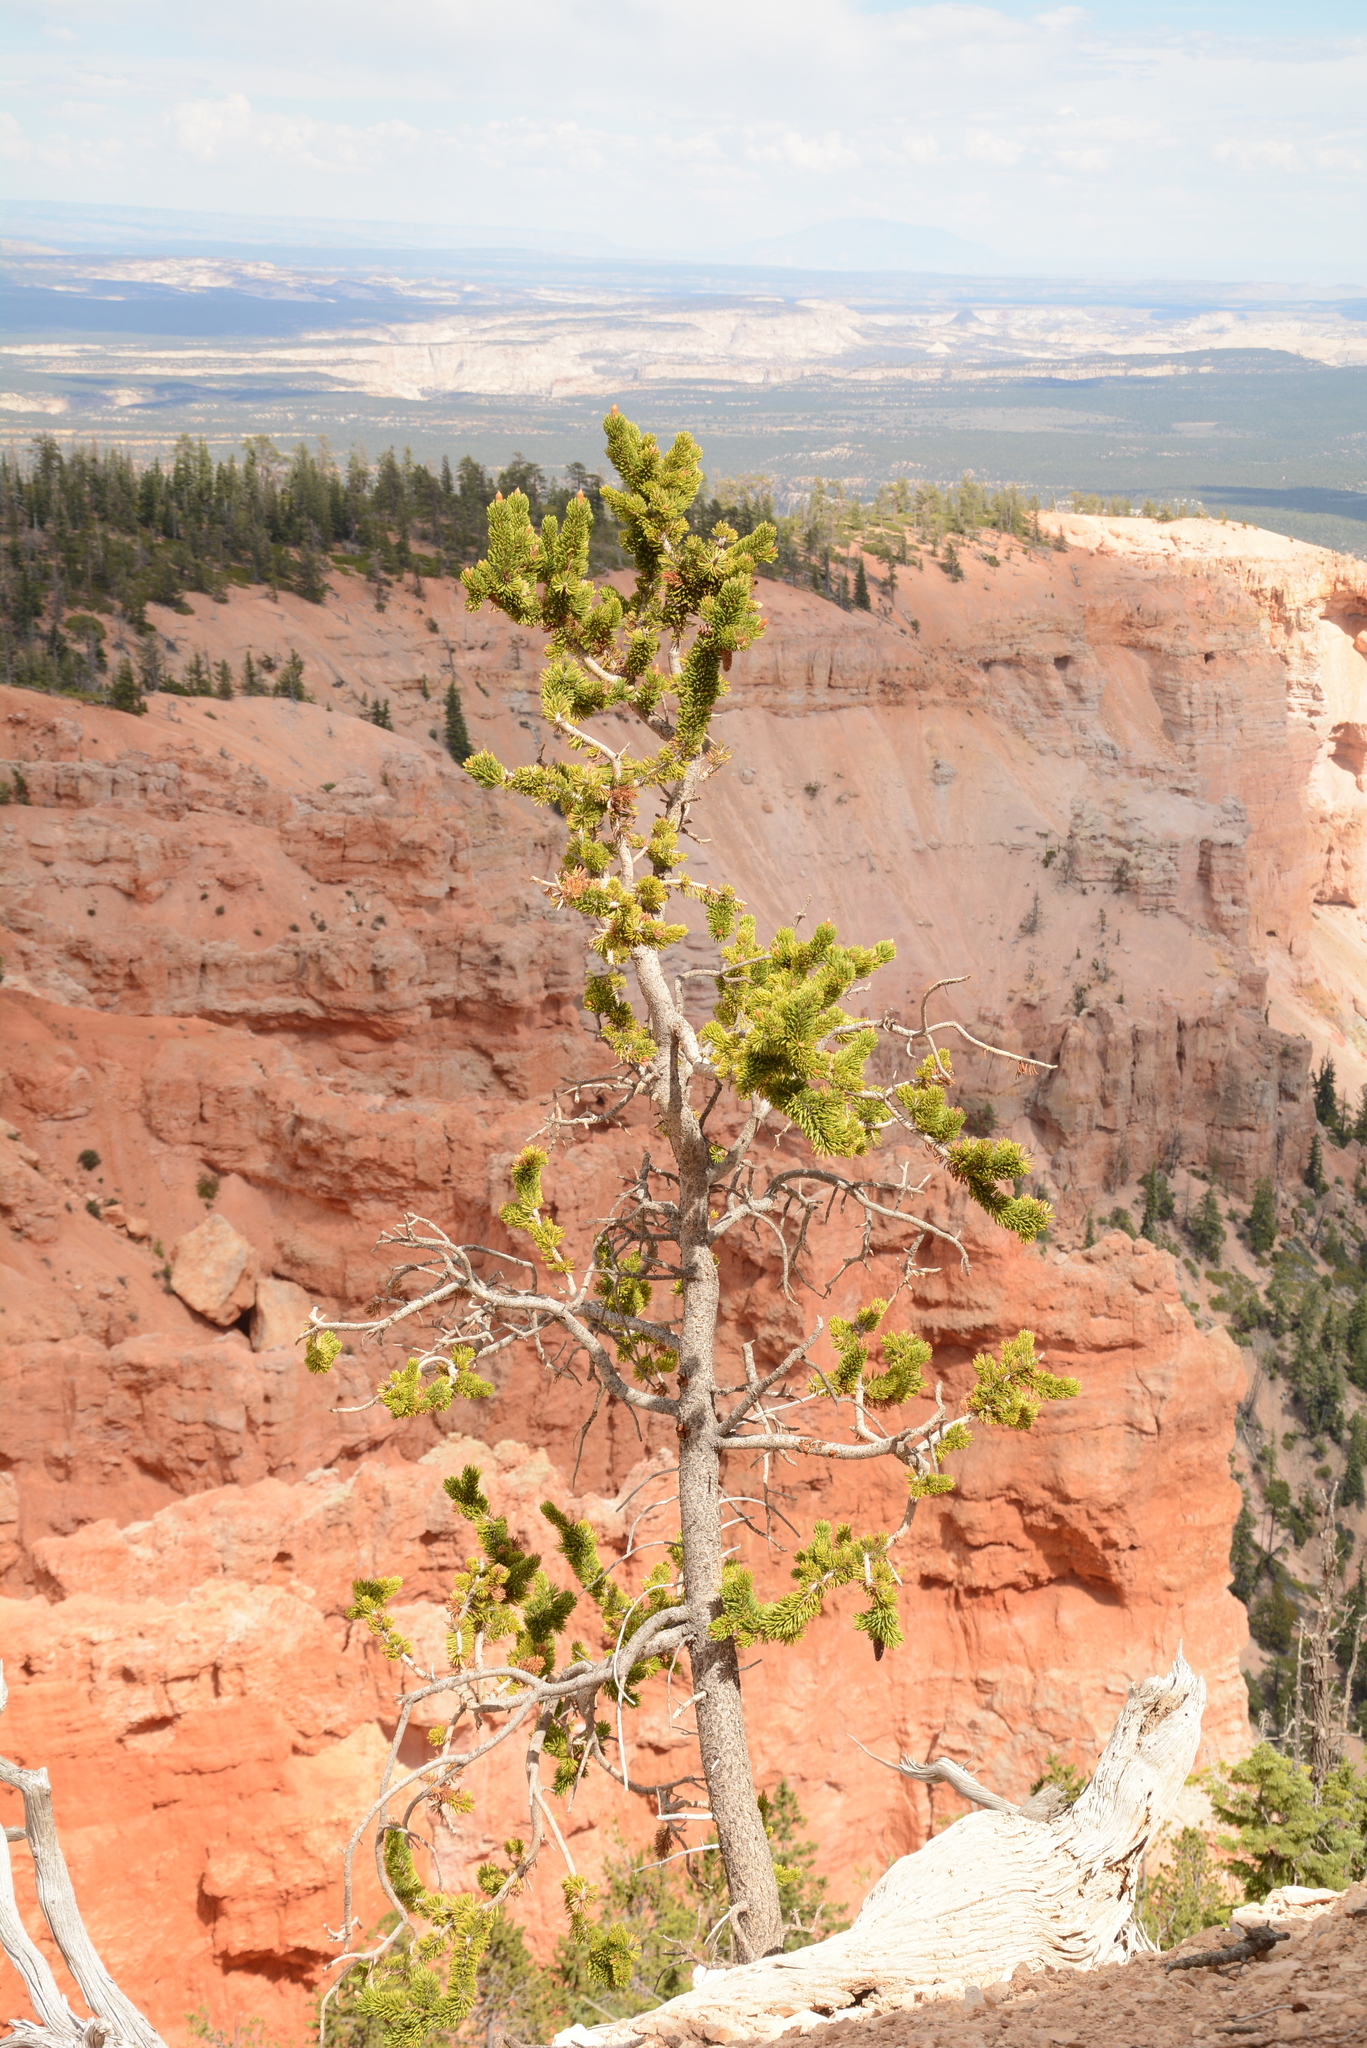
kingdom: Plantae
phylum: Tracheophyta
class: Pinopsida
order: Pinales
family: Pinaceae
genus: Pinus
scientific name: Pinus longaeva
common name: Intermountain bristlecone pine
